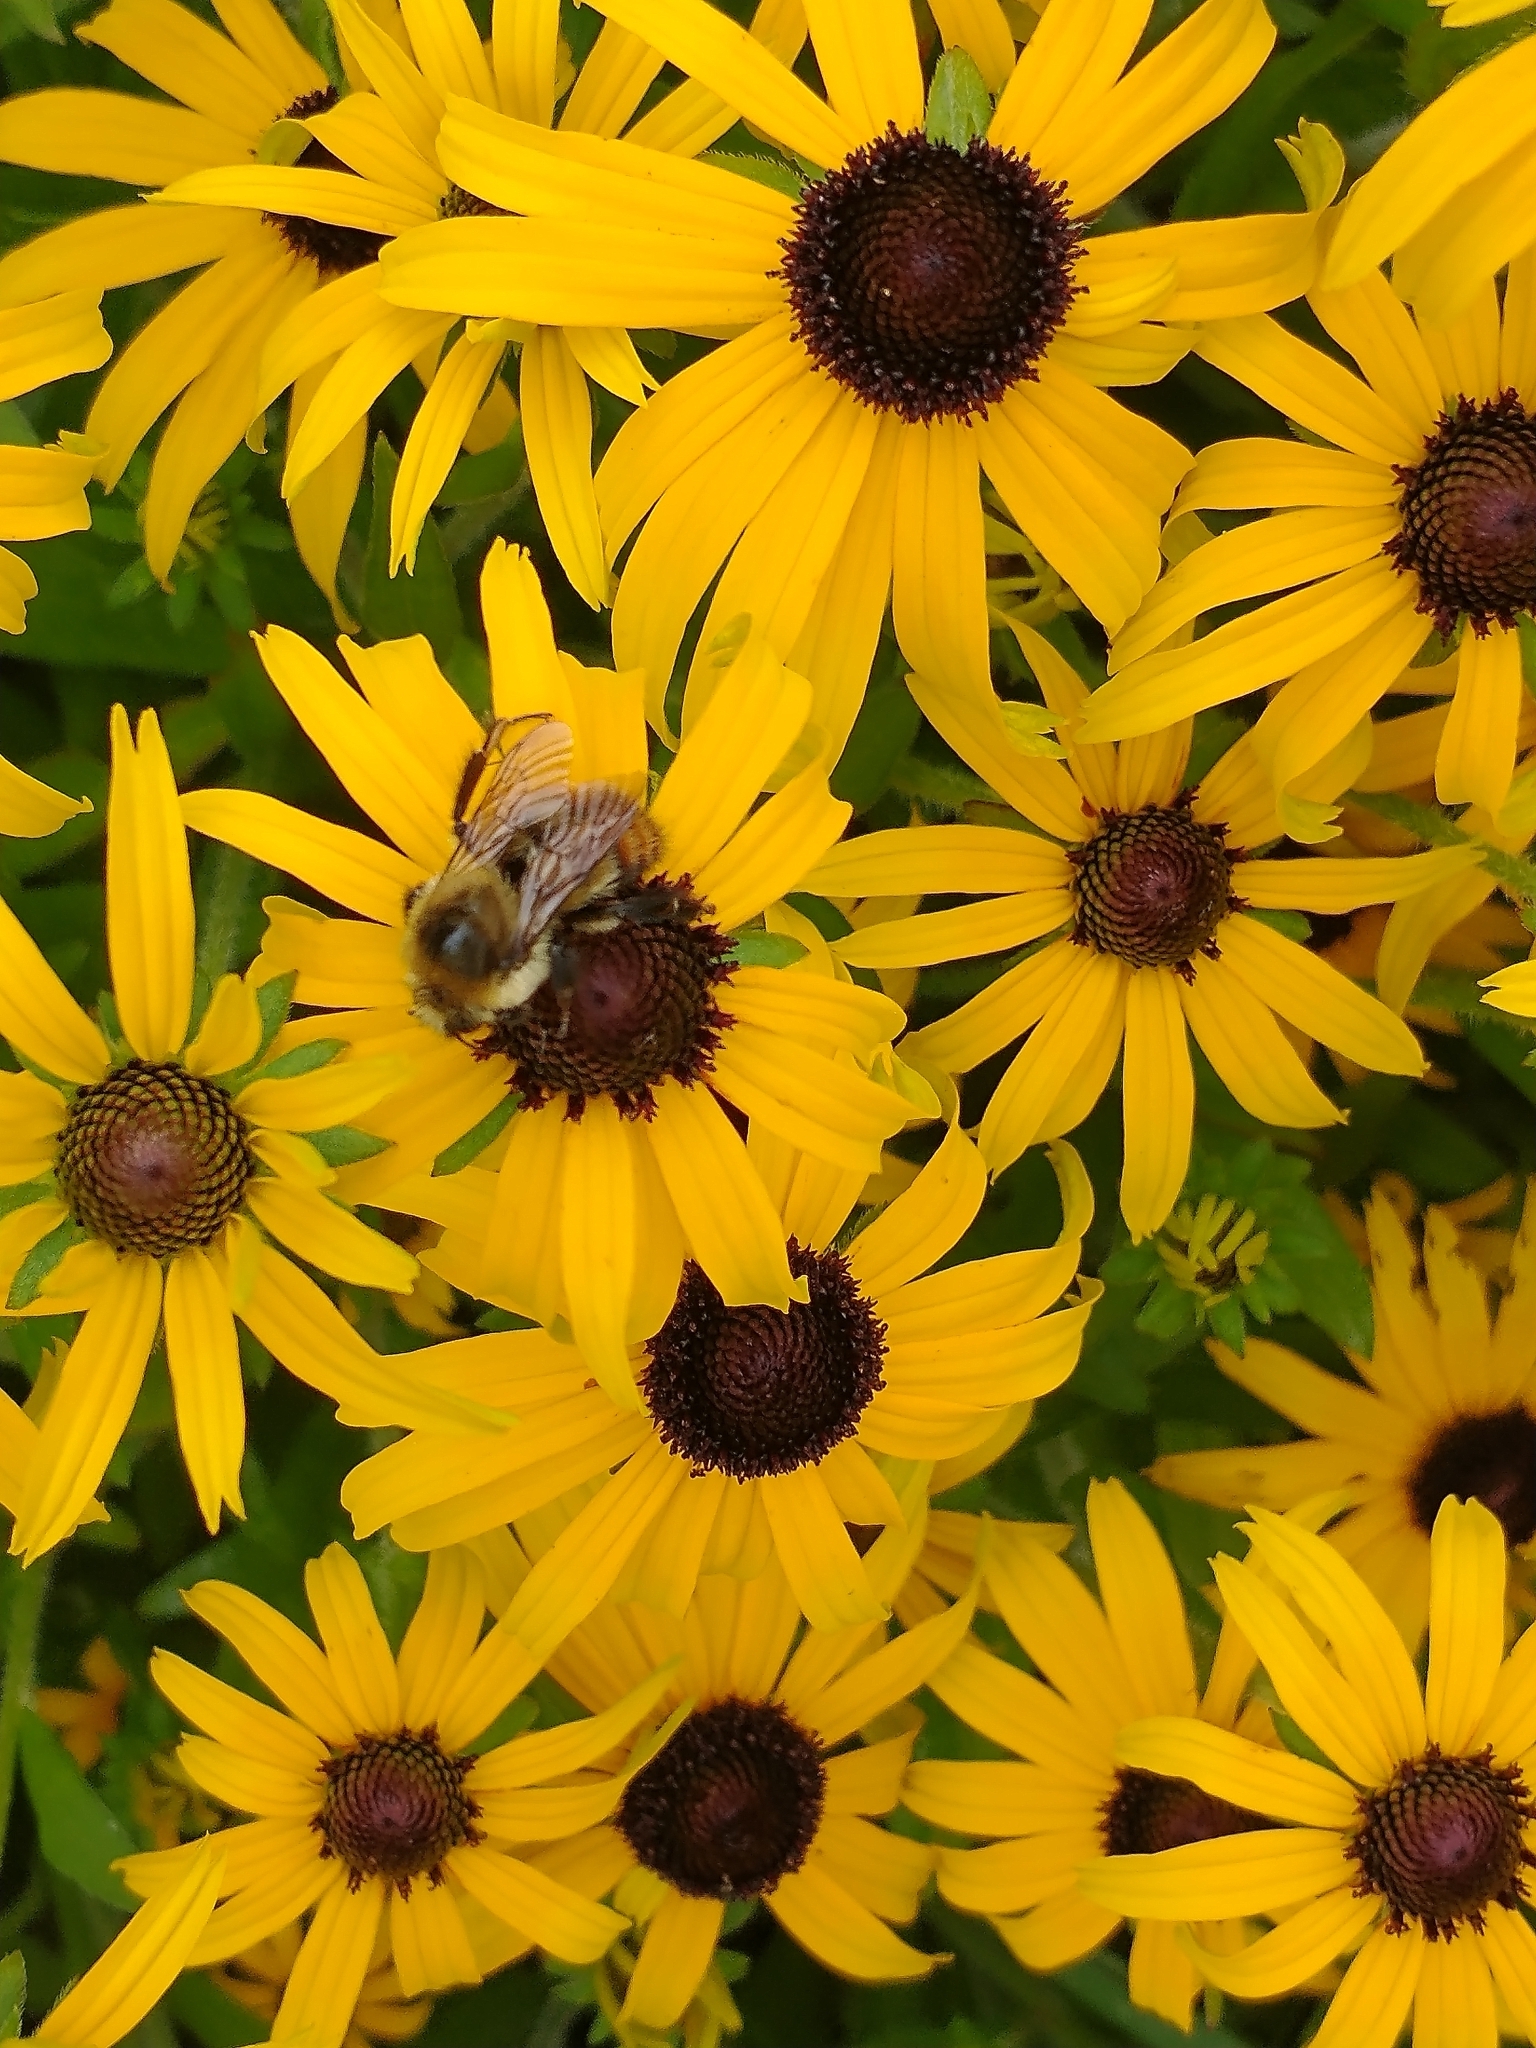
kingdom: Animalia
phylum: Arthropoda
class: Insecta
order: Hymenoptera
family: Apidae
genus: Bombus
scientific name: Bombus rufocinctus
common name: Red-belted bumble bee
